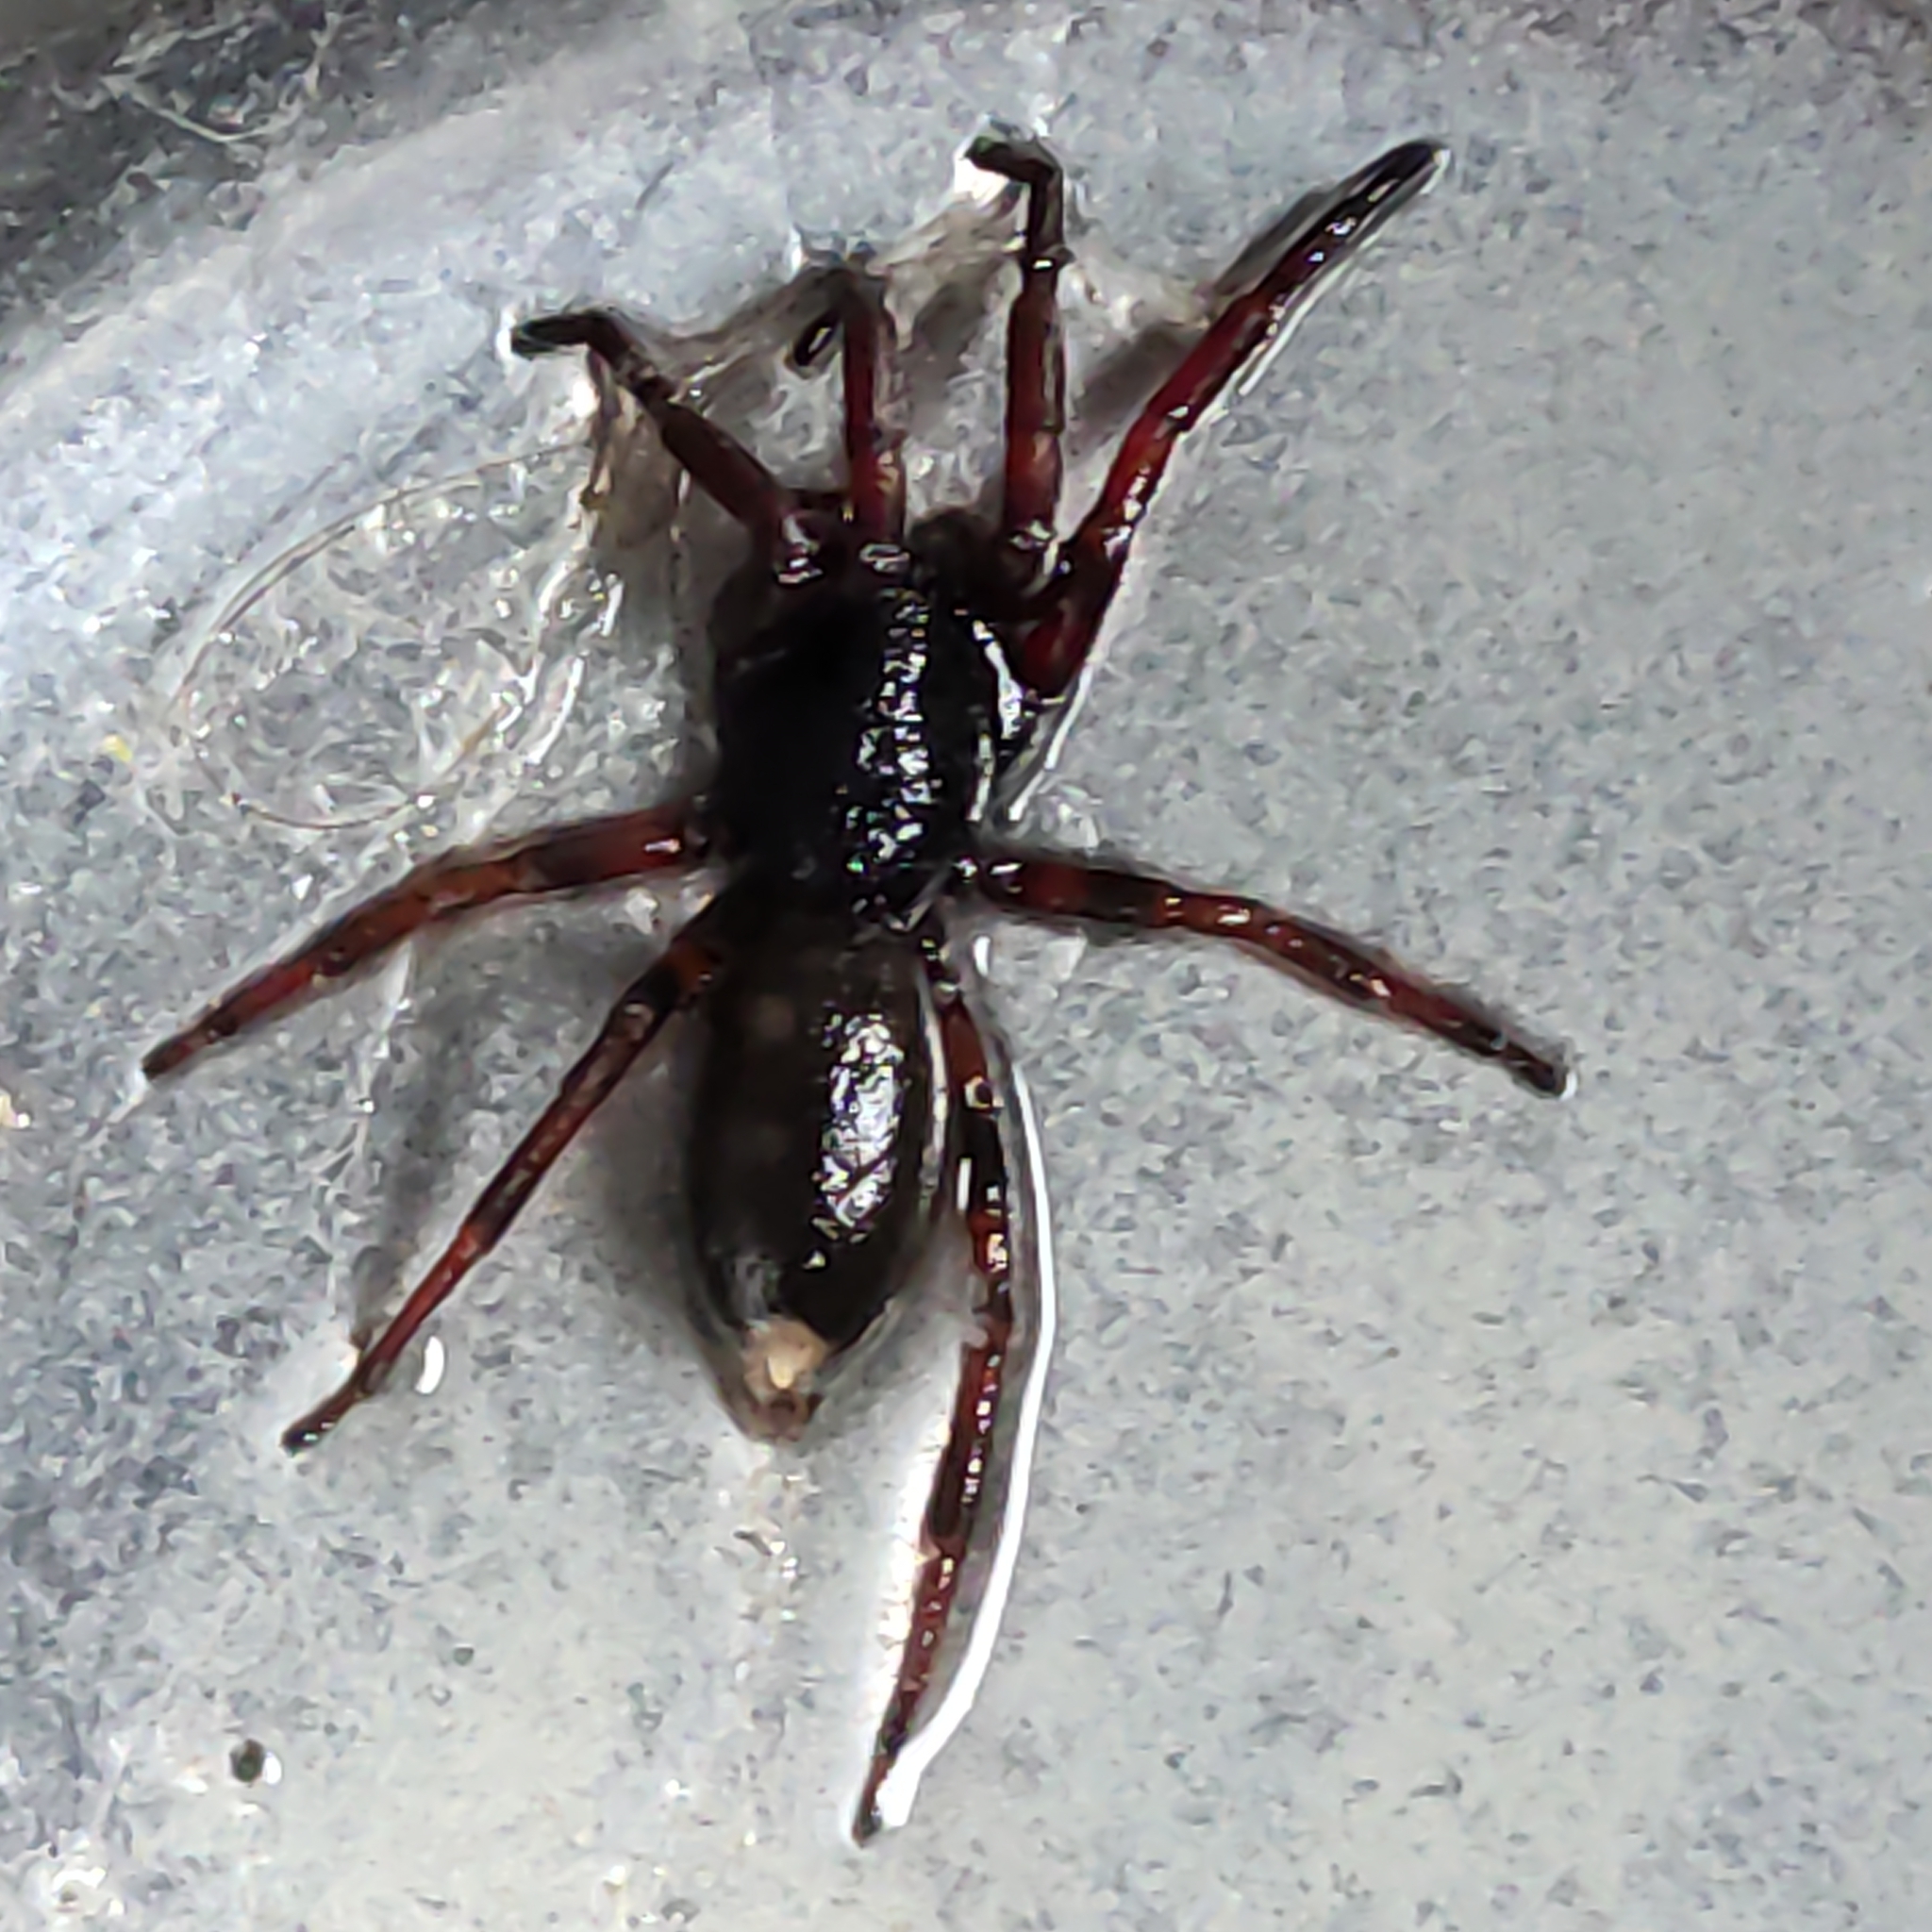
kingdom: Animalia
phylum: Arthropoda
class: Arachnida
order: Araneae
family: Lamponidae
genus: Lampona
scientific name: Lampona cylindrata
